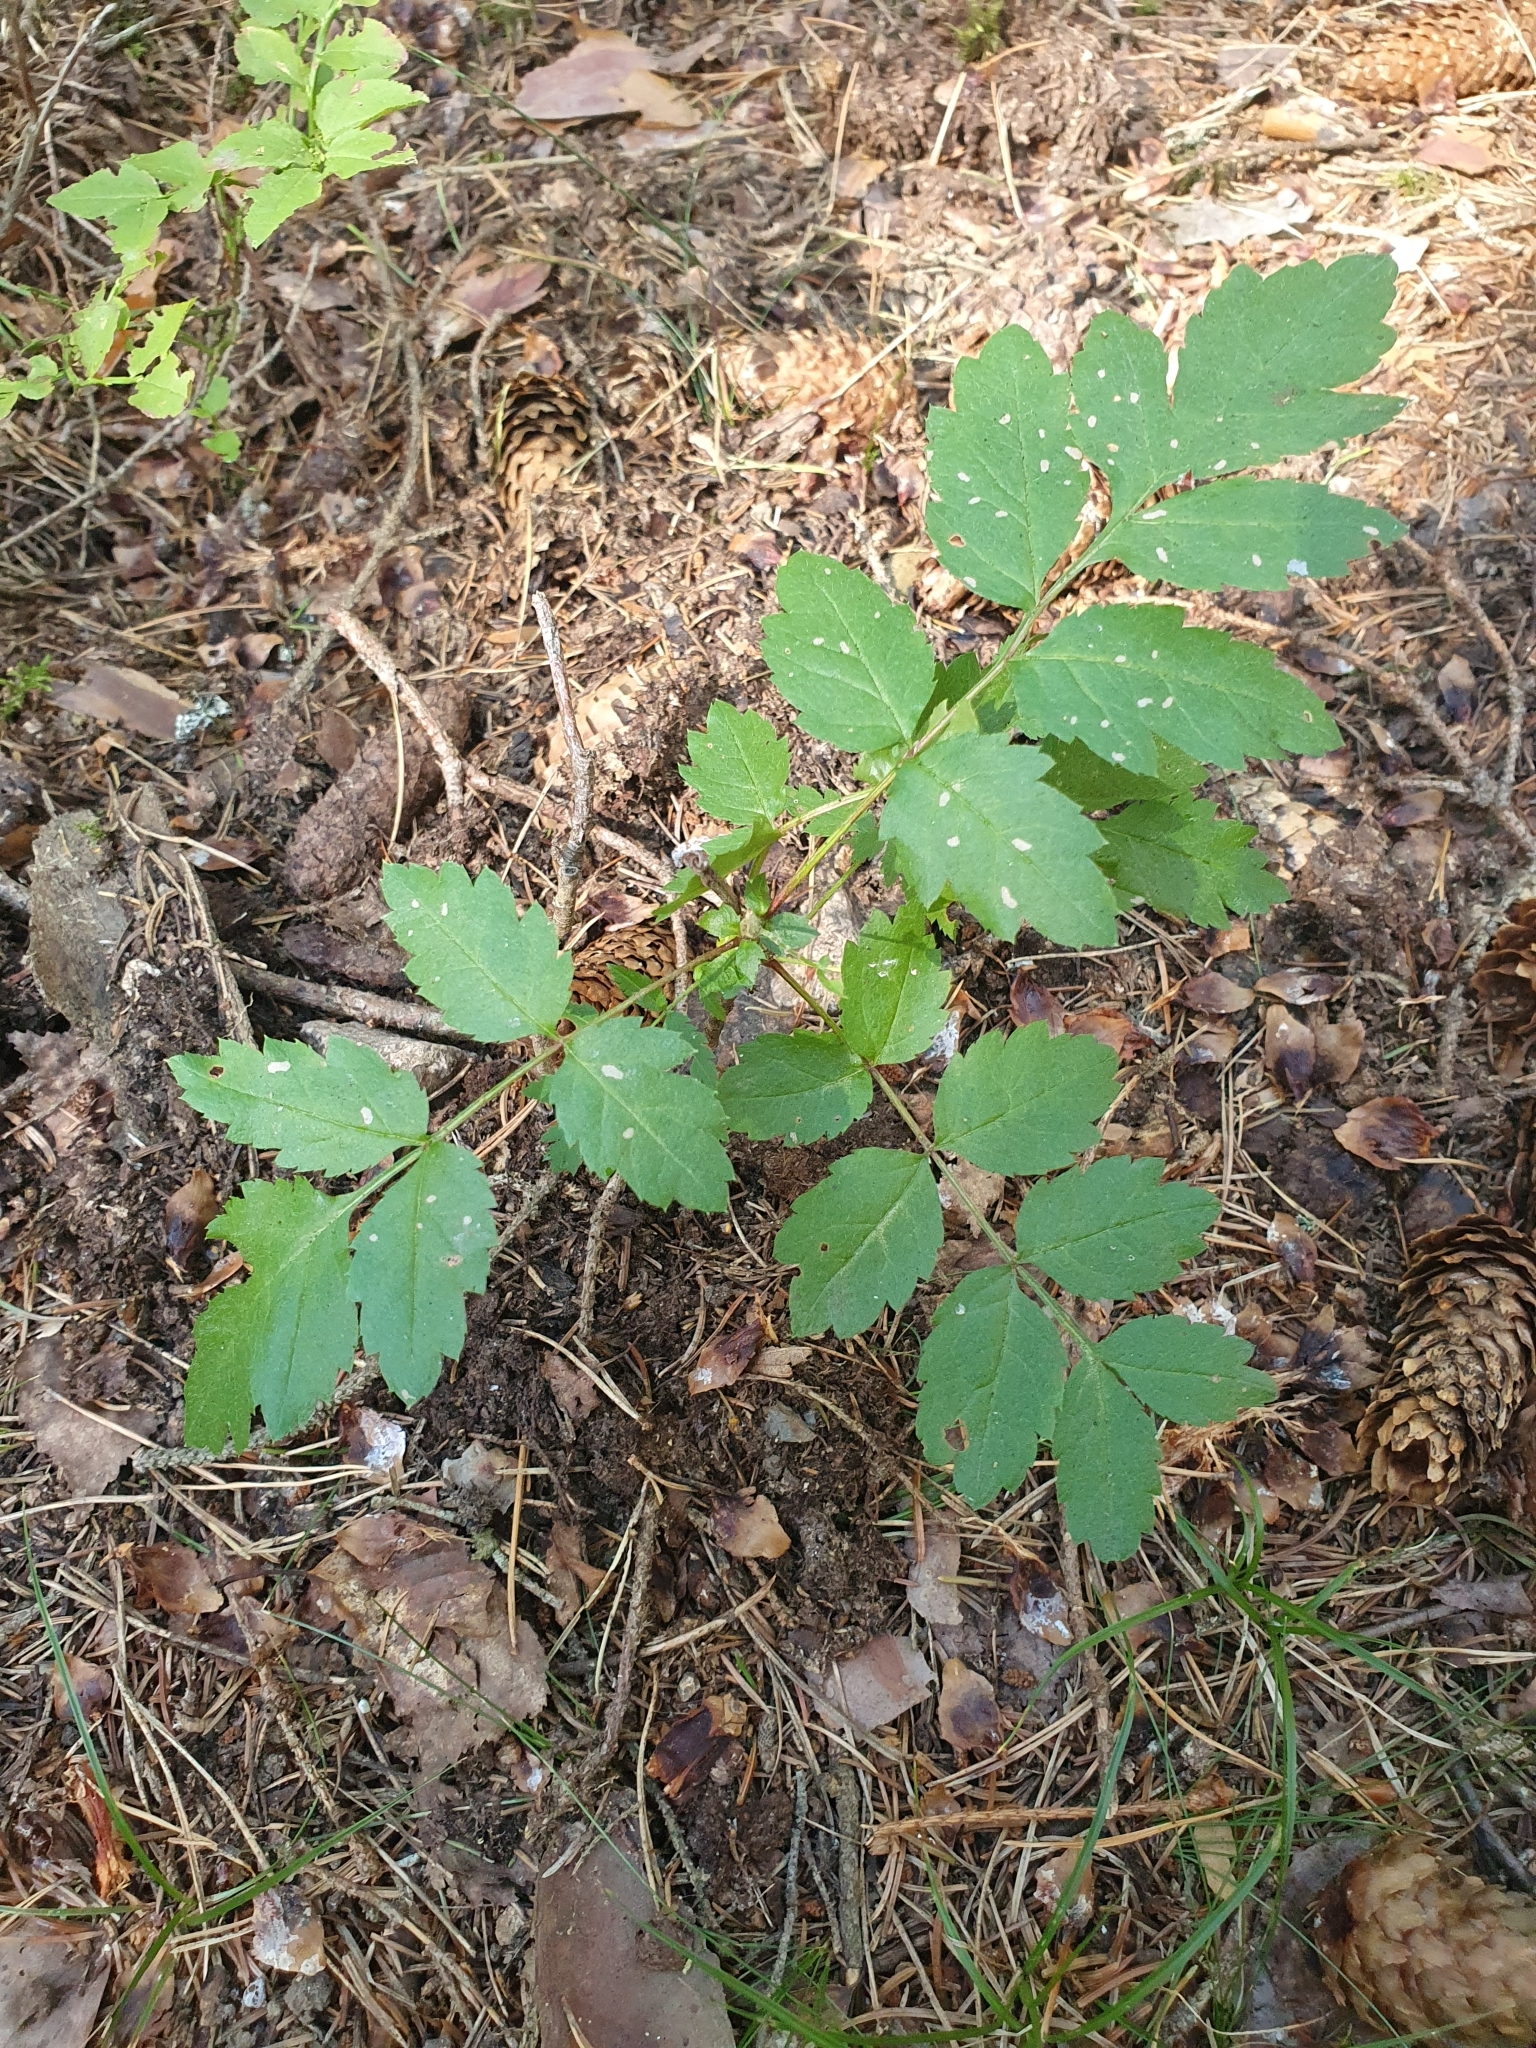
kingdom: Plantae
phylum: Tracheophyta
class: Magnoliopsida
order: Rosales
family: Rosaceae
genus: Sorbus
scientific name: Sorbus aucuparia
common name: Rowan
